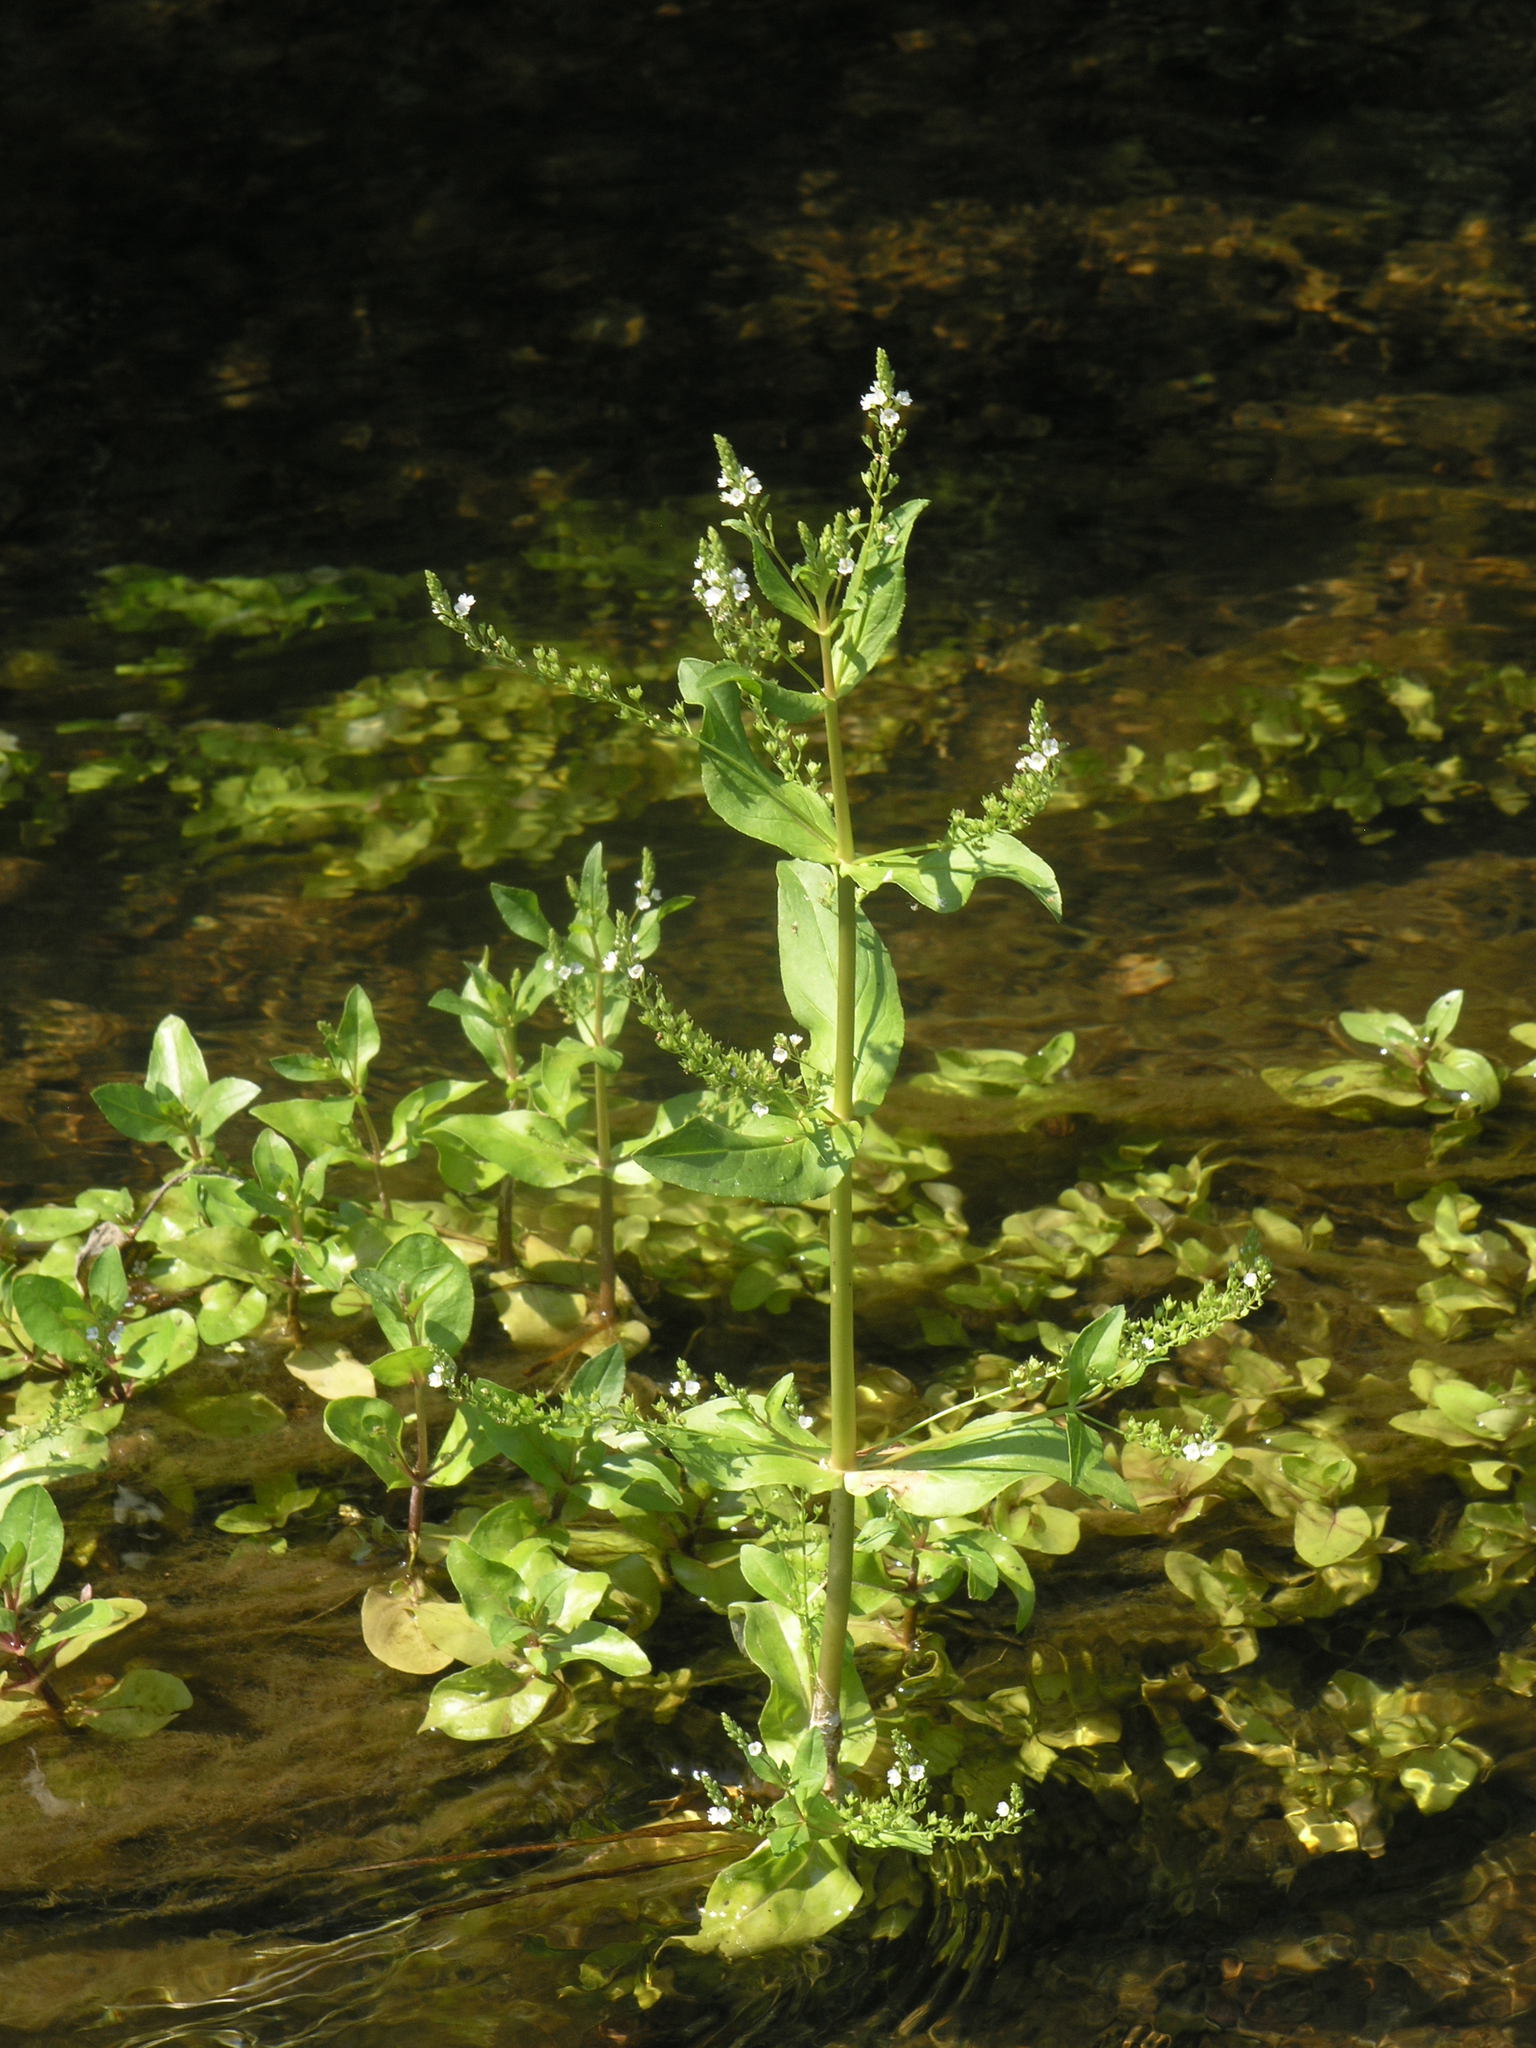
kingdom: Plantae
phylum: Tracheophyta
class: Magnoliopsida
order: Lamiales
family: Plantaginaceae
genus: Veronica
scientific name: Veronica anagallis-aquatica
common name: Water speedwell
